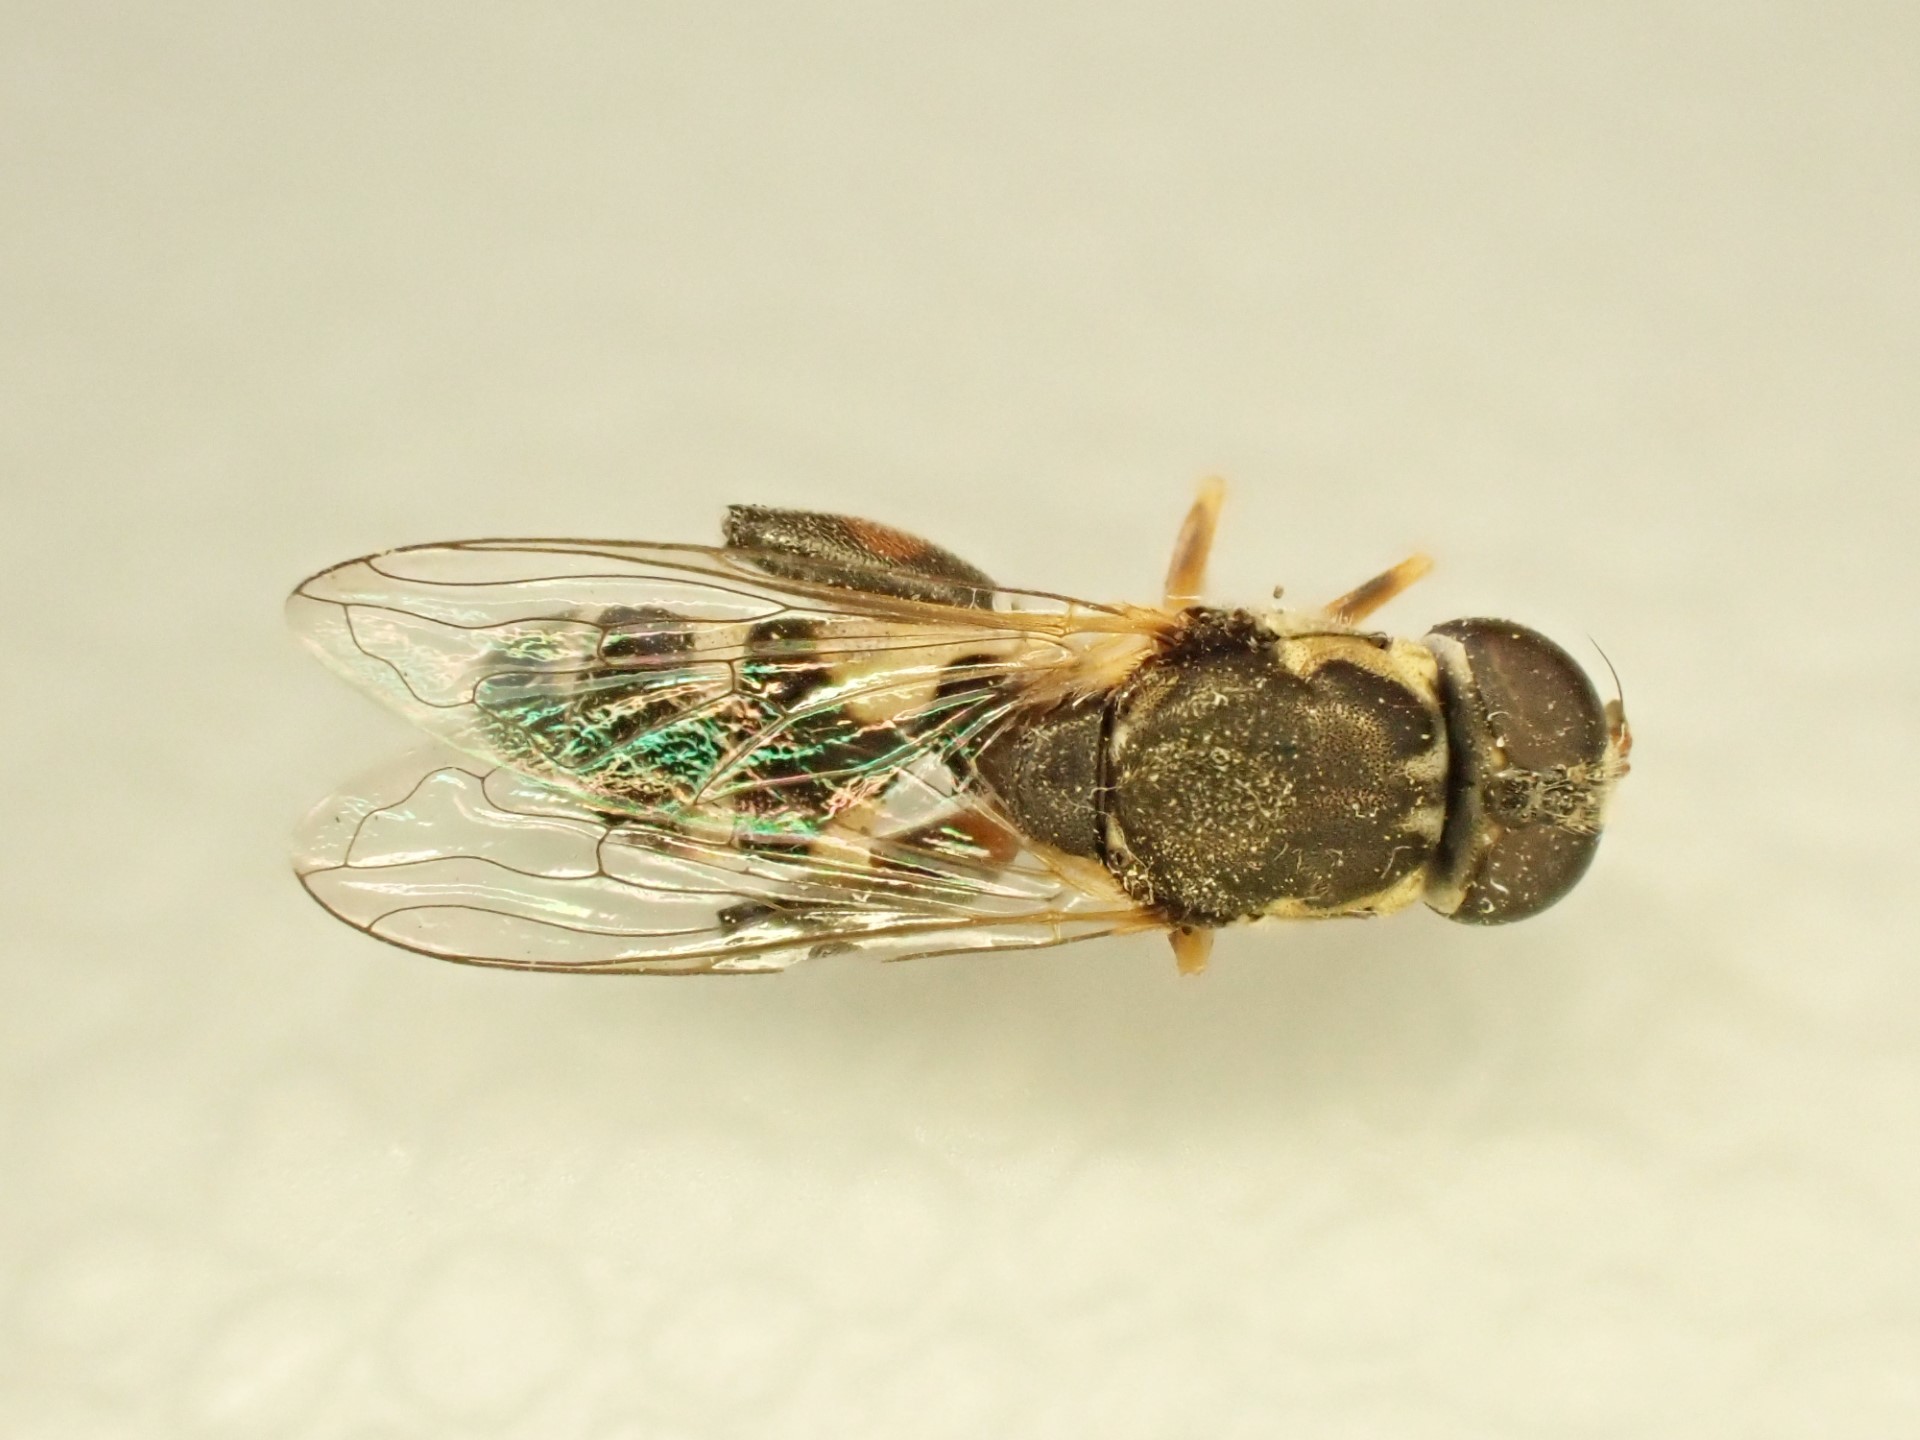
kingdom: Animalia
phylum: Arthropoda
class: Insecta
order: Diptera
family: Syrphidae
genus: Syritta
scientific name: Syritta pipiens
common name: Hover fly
